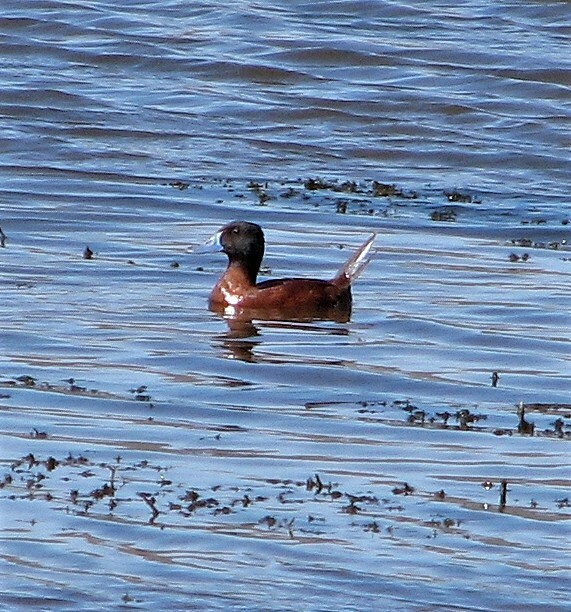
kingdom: Animalia
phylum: Chordata
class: Aves
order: Anseriformes
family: Anatidae
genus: Oxyura
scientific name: Oxyura vittata
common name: Lake duck
